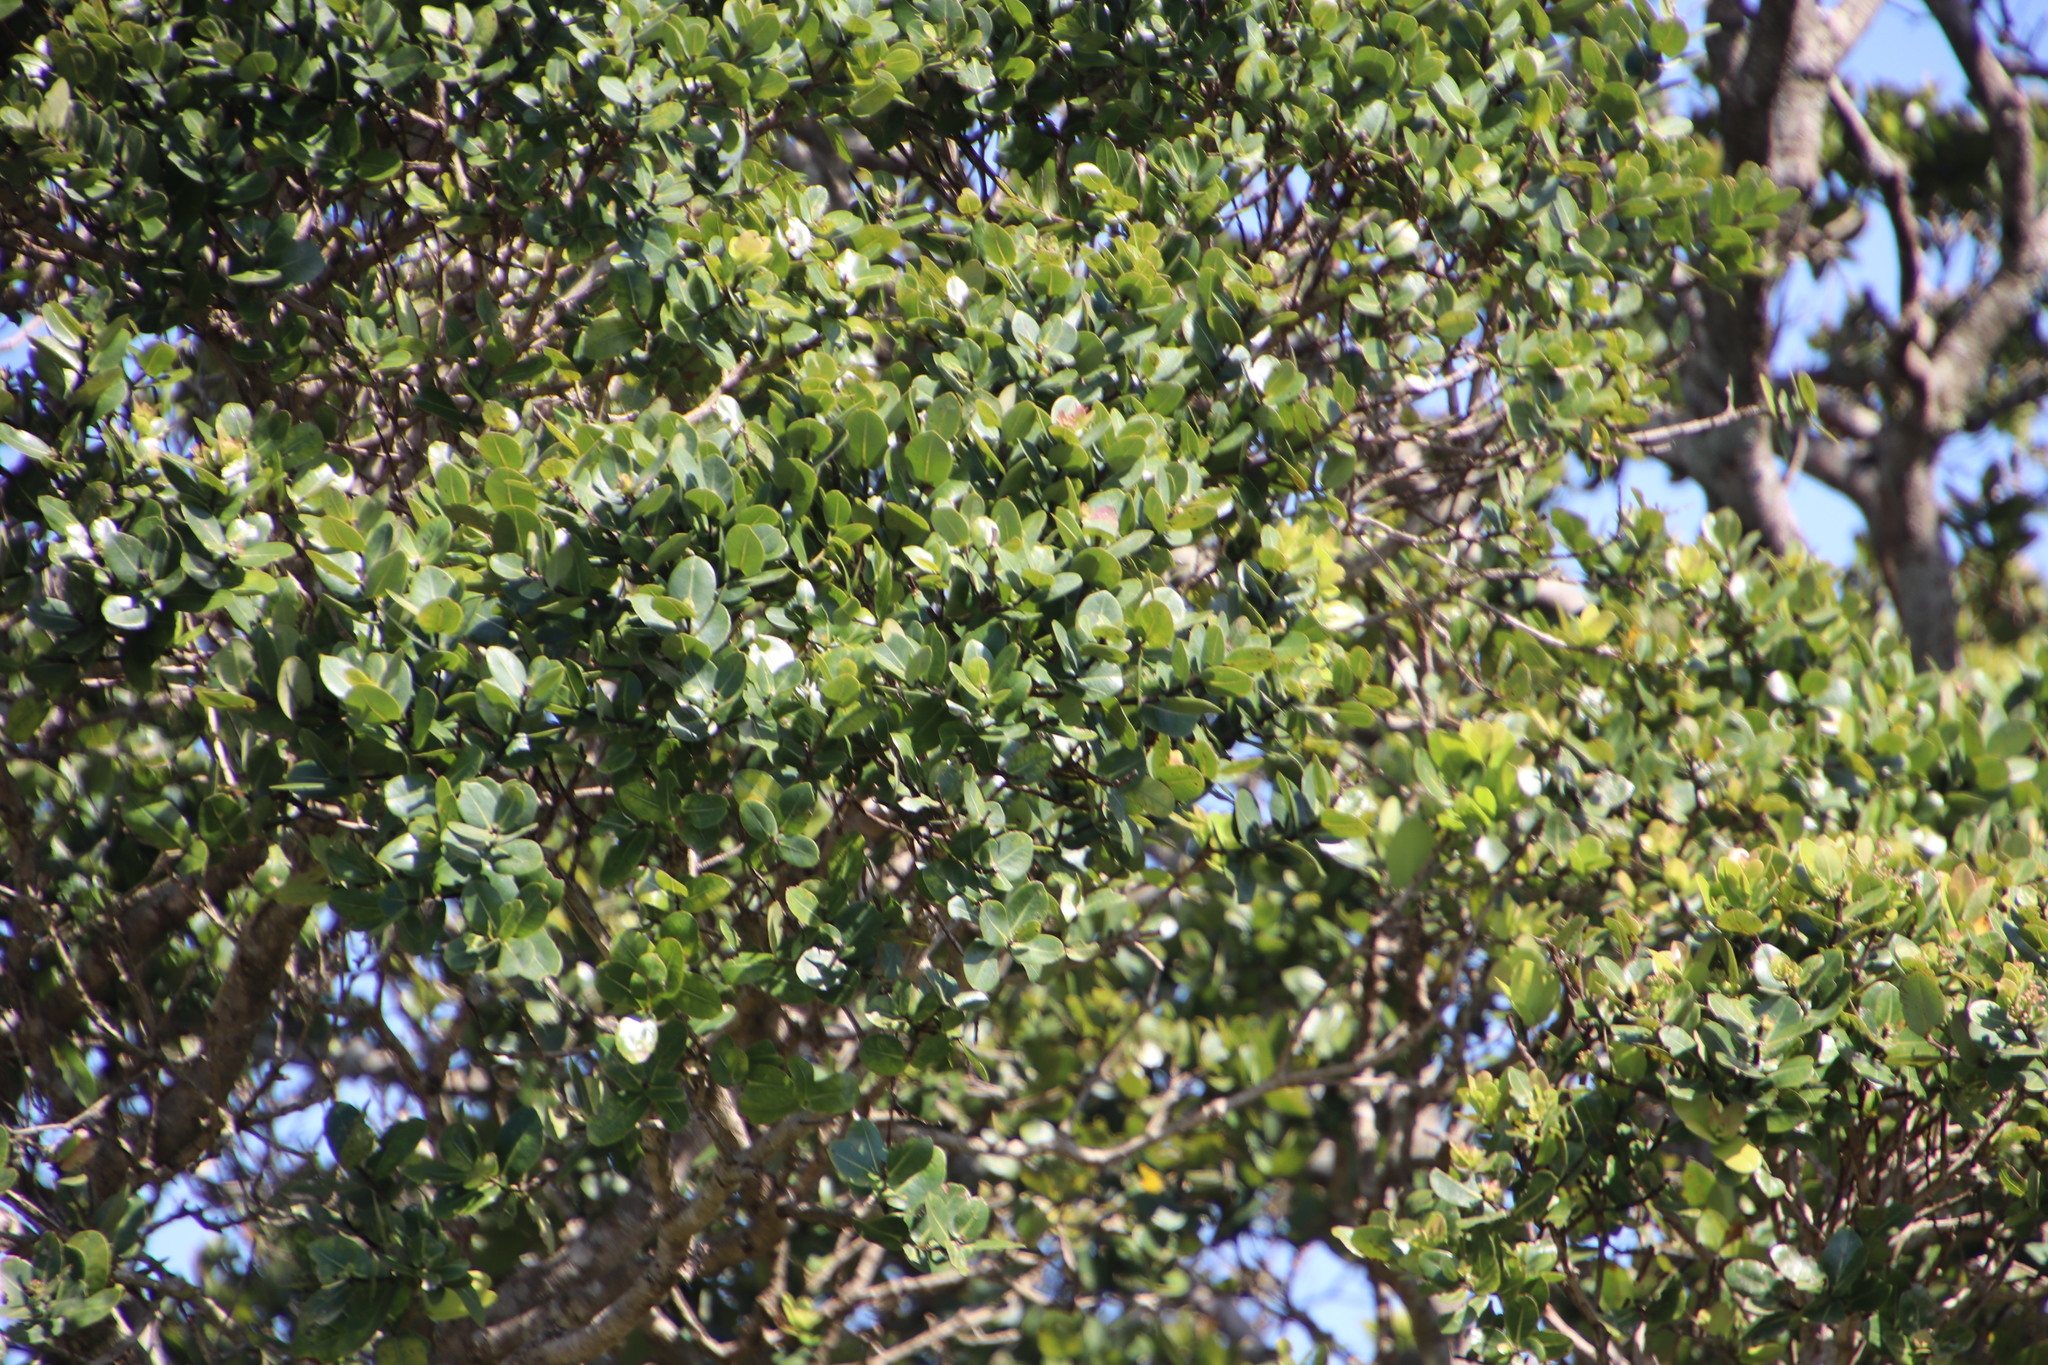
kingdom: Plantae
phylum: Tracheophyta
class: Magnoliopsida
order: Myrtales
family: Myrtaceae
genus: Syzygium
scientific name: Syzygium cordatum
